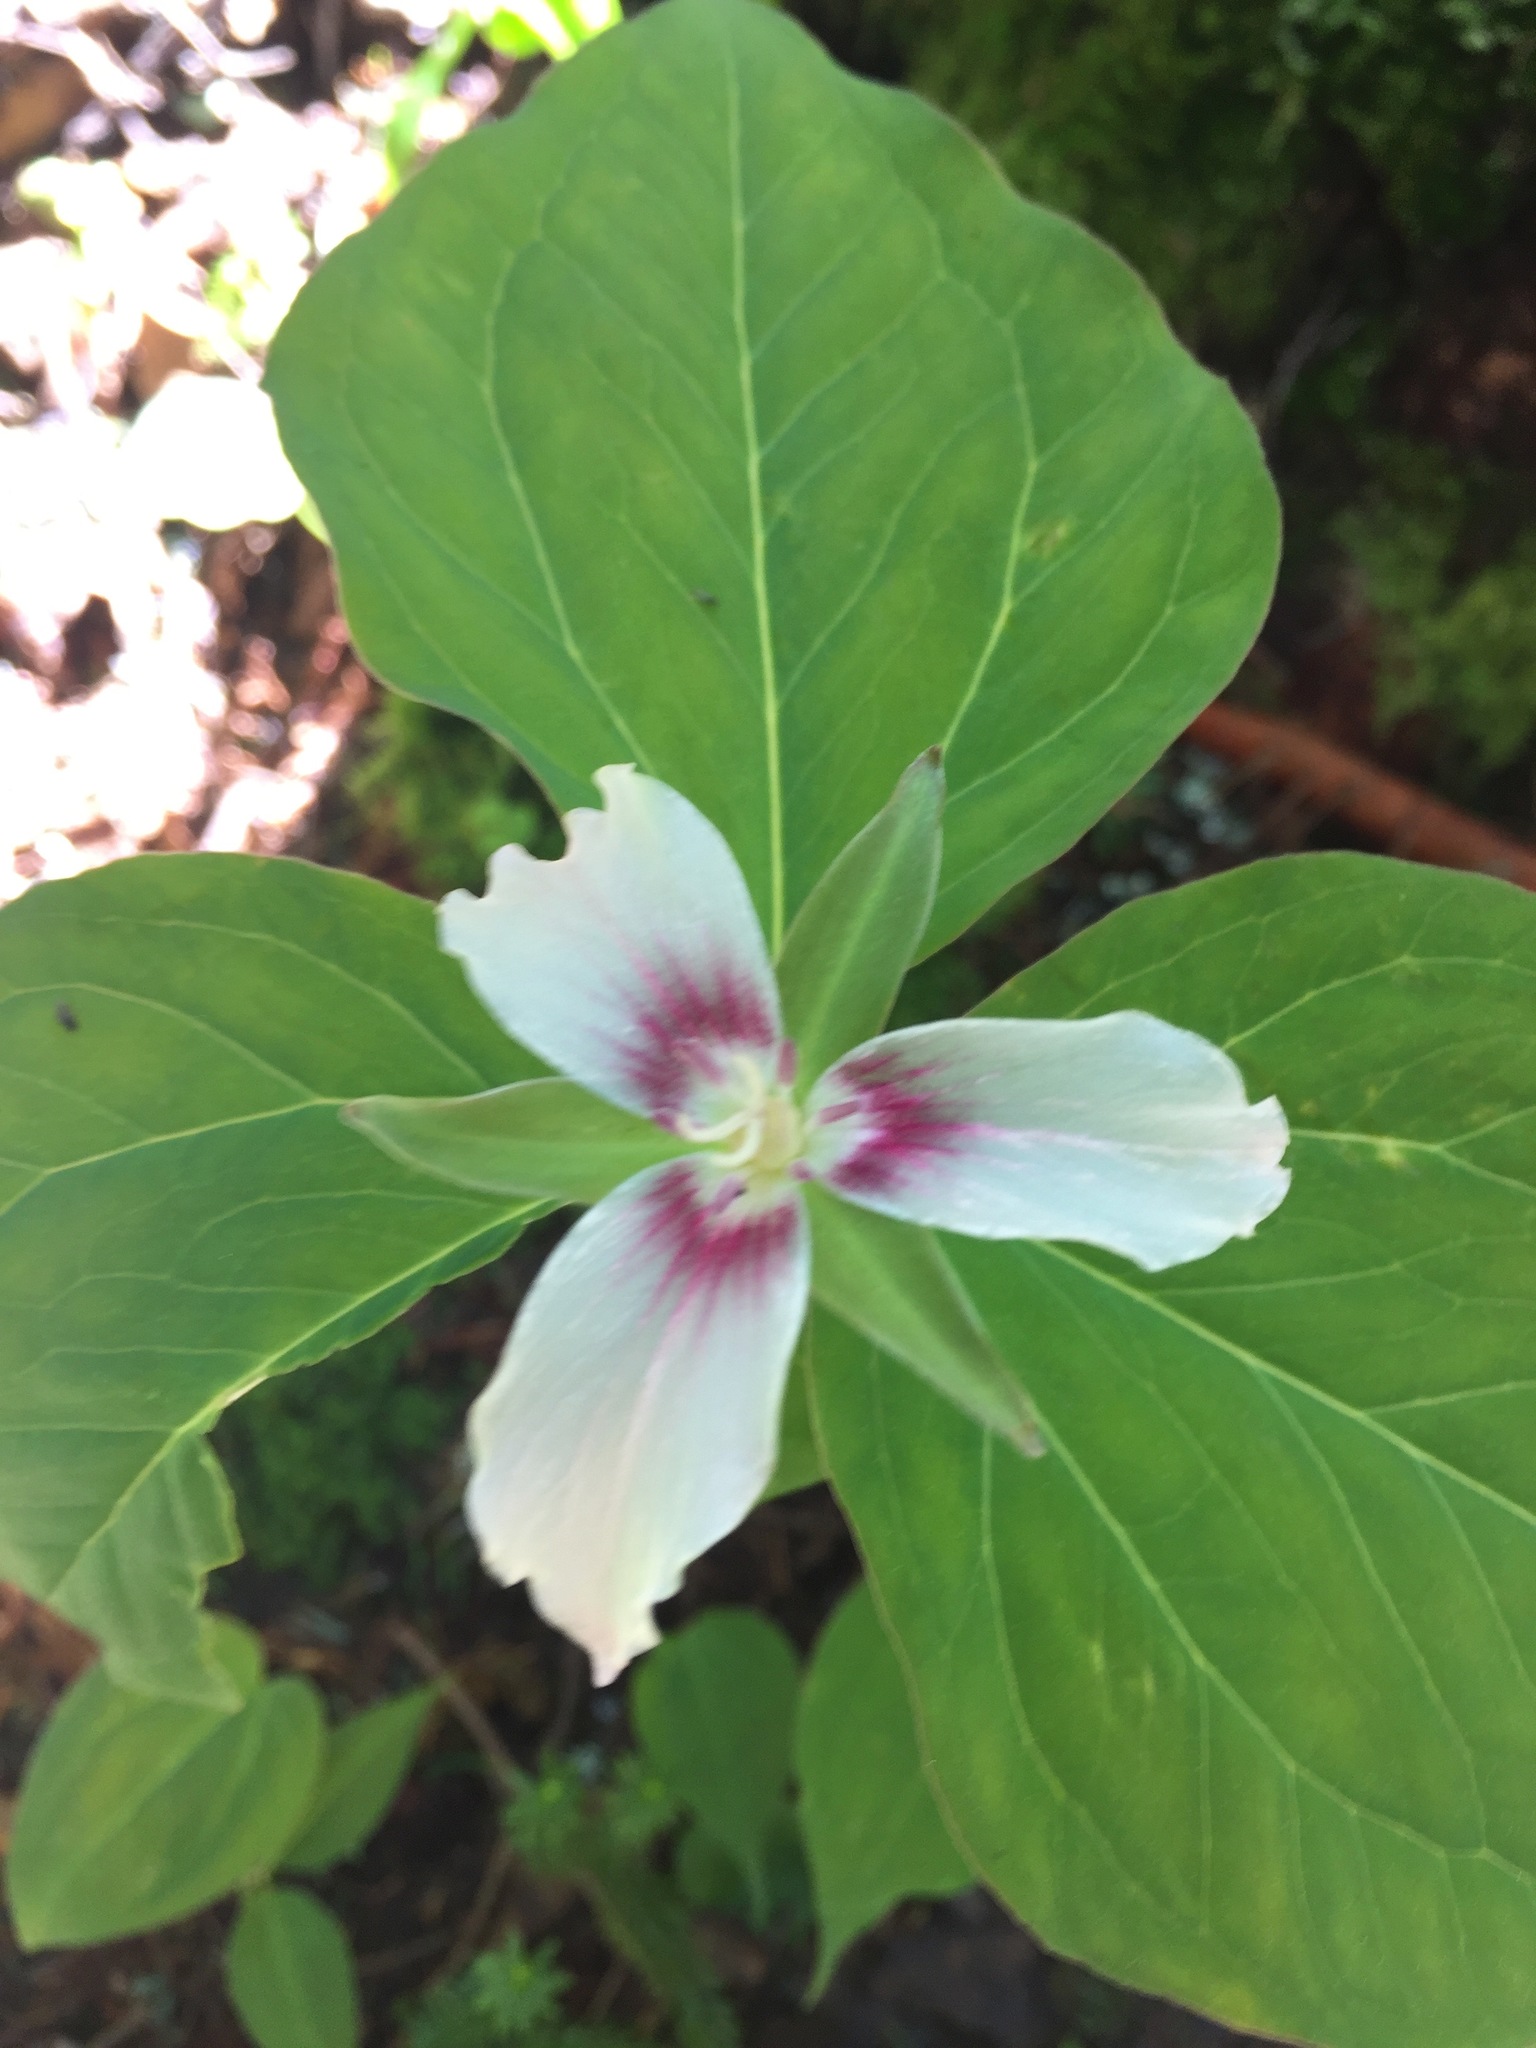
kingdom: Plantae
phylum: Tracheophyta
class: Liliopsida
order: Liliales
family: Melanthiaceae
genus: Trillium
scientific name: Trillium undulatum
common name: Paint trillium
